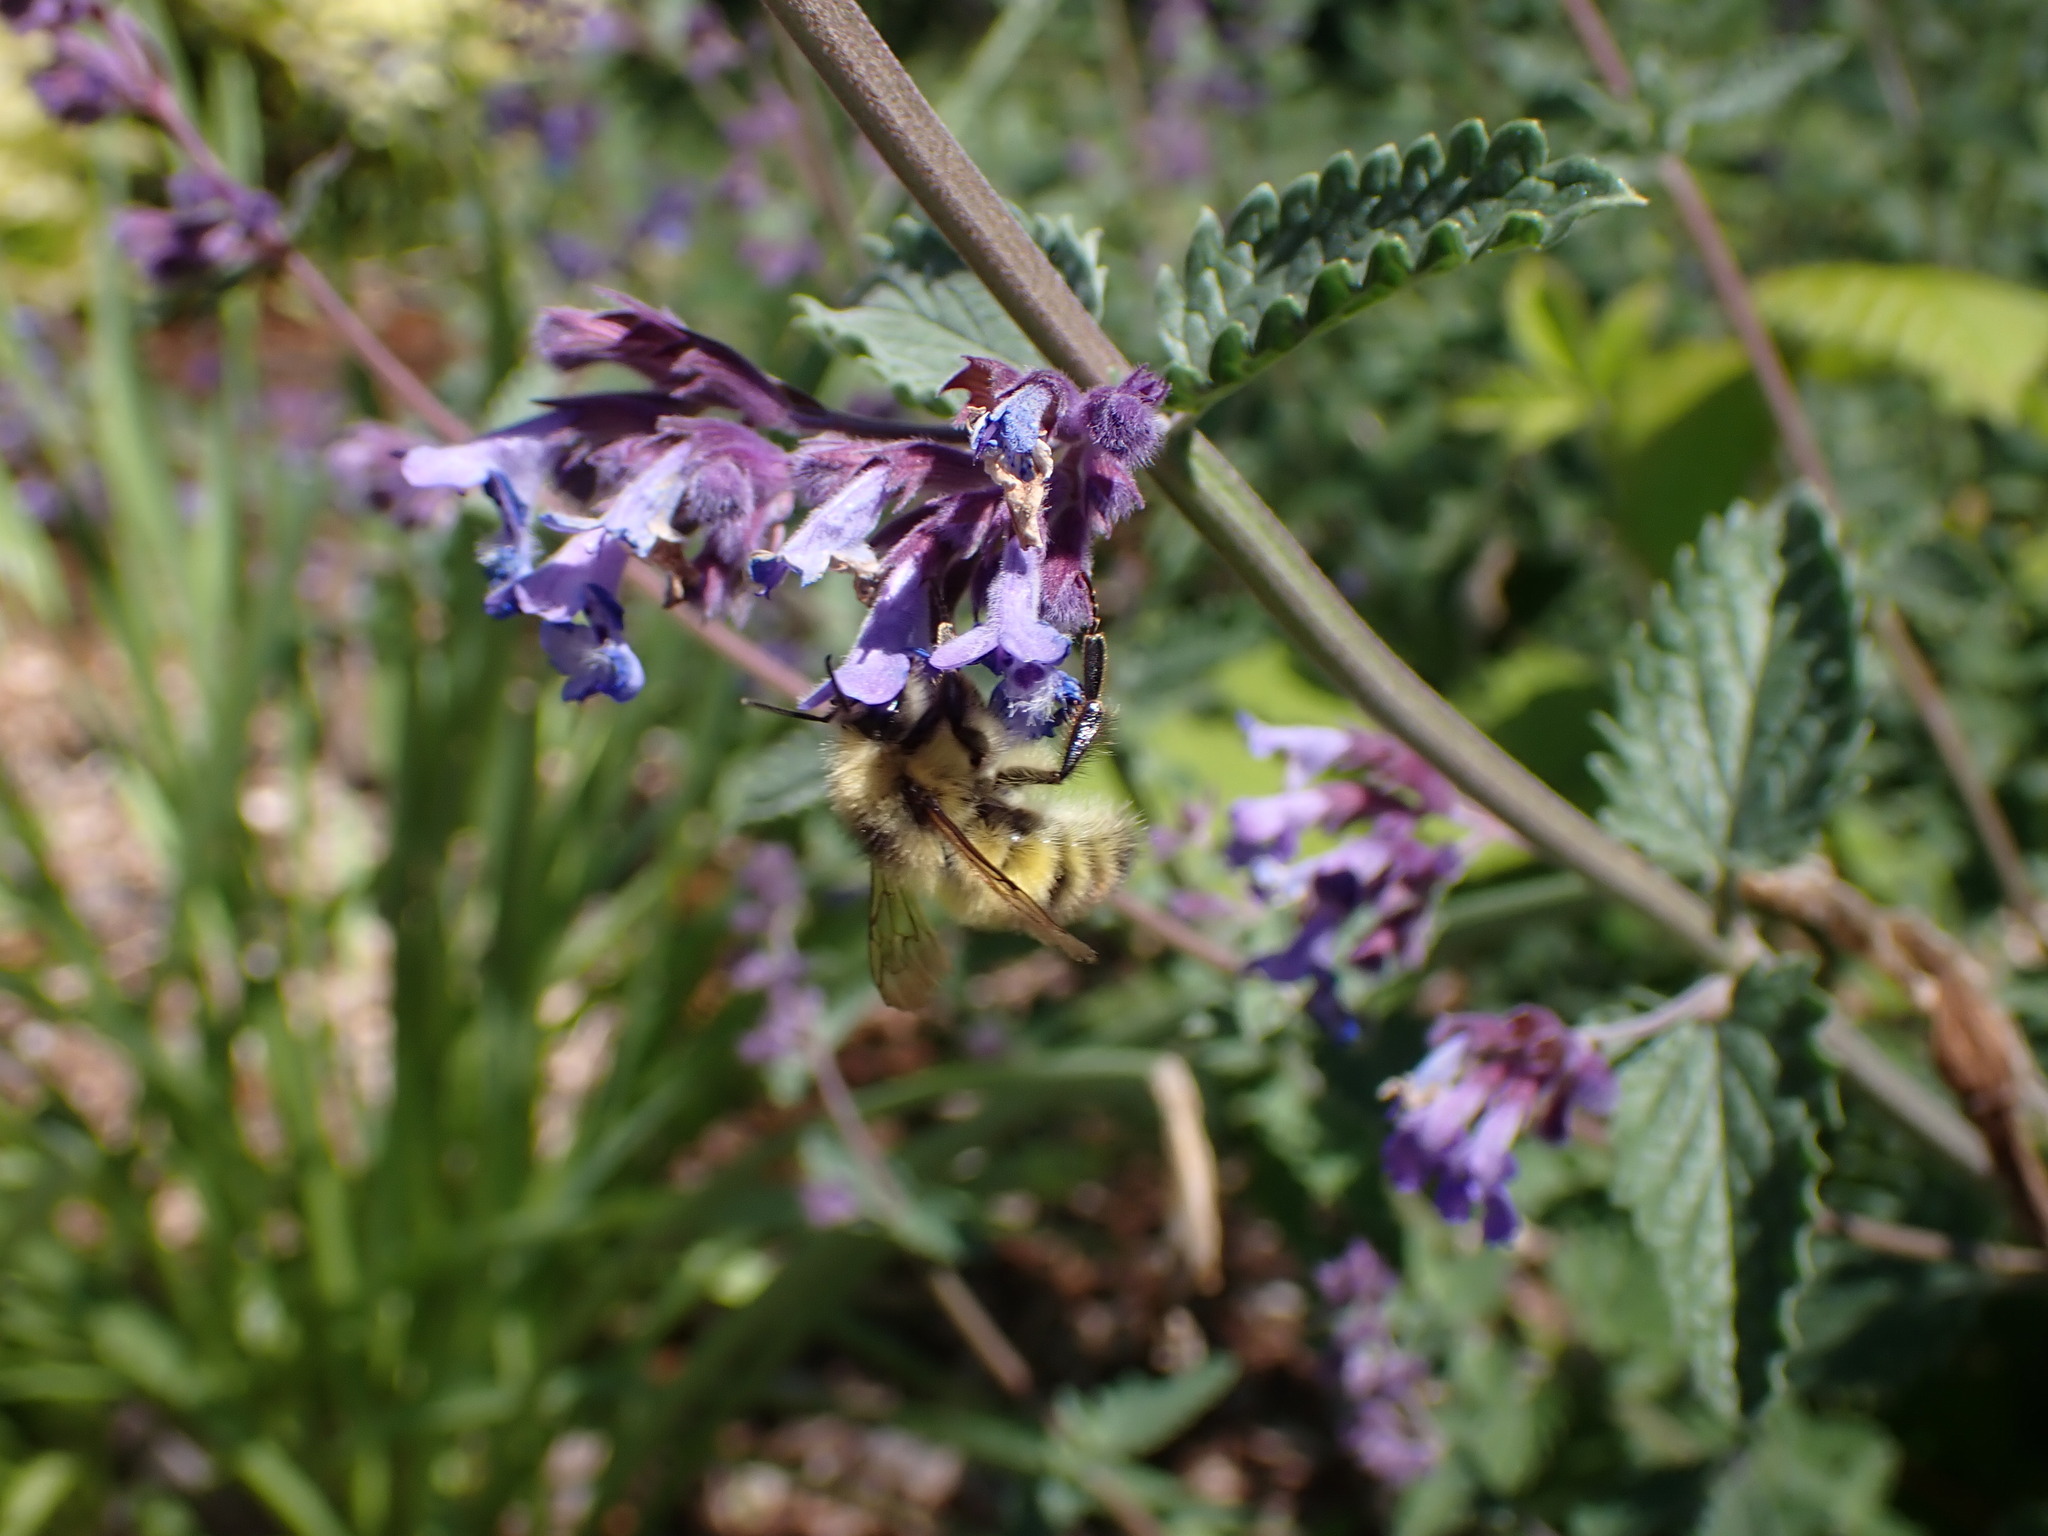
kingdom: Animalia
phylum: Arthropoda
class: Insecta
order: Hymenoptera
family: Apidae
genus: Bombus
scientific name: Bombus flavifrons
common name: Yellow head bumble bee
